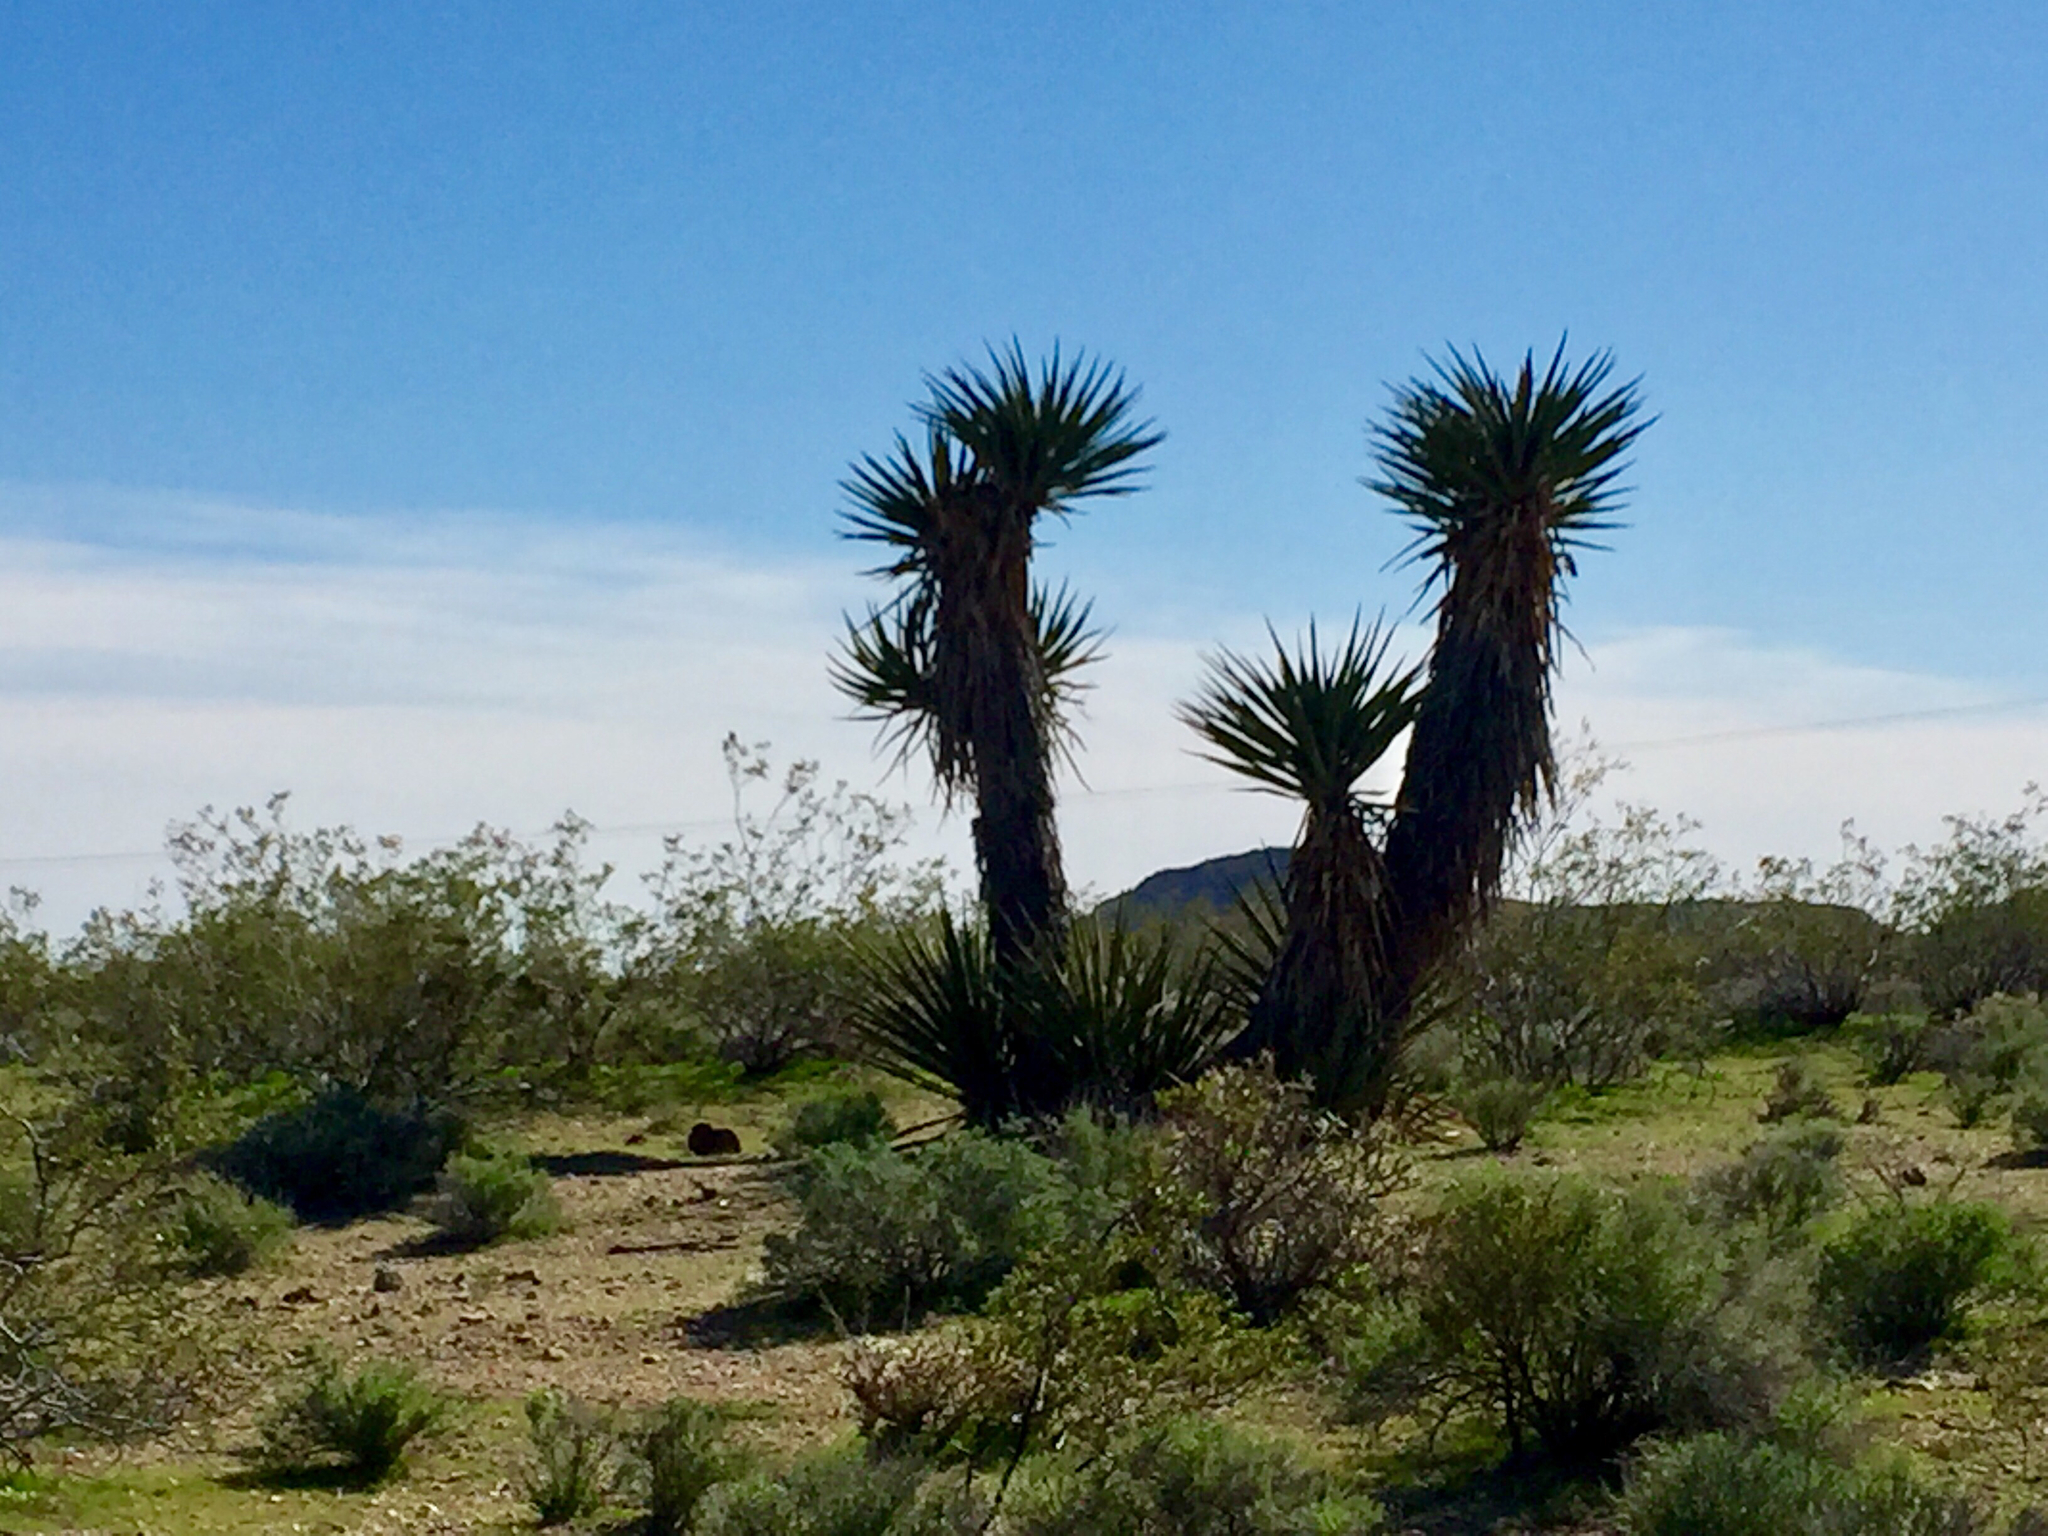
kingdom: Plantae
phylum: Tracheophyta
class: Liliopsida
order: Asparagales
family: Asparagaceae
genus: Yucca
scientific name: Yucca schidigera
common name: Mojave yucca
